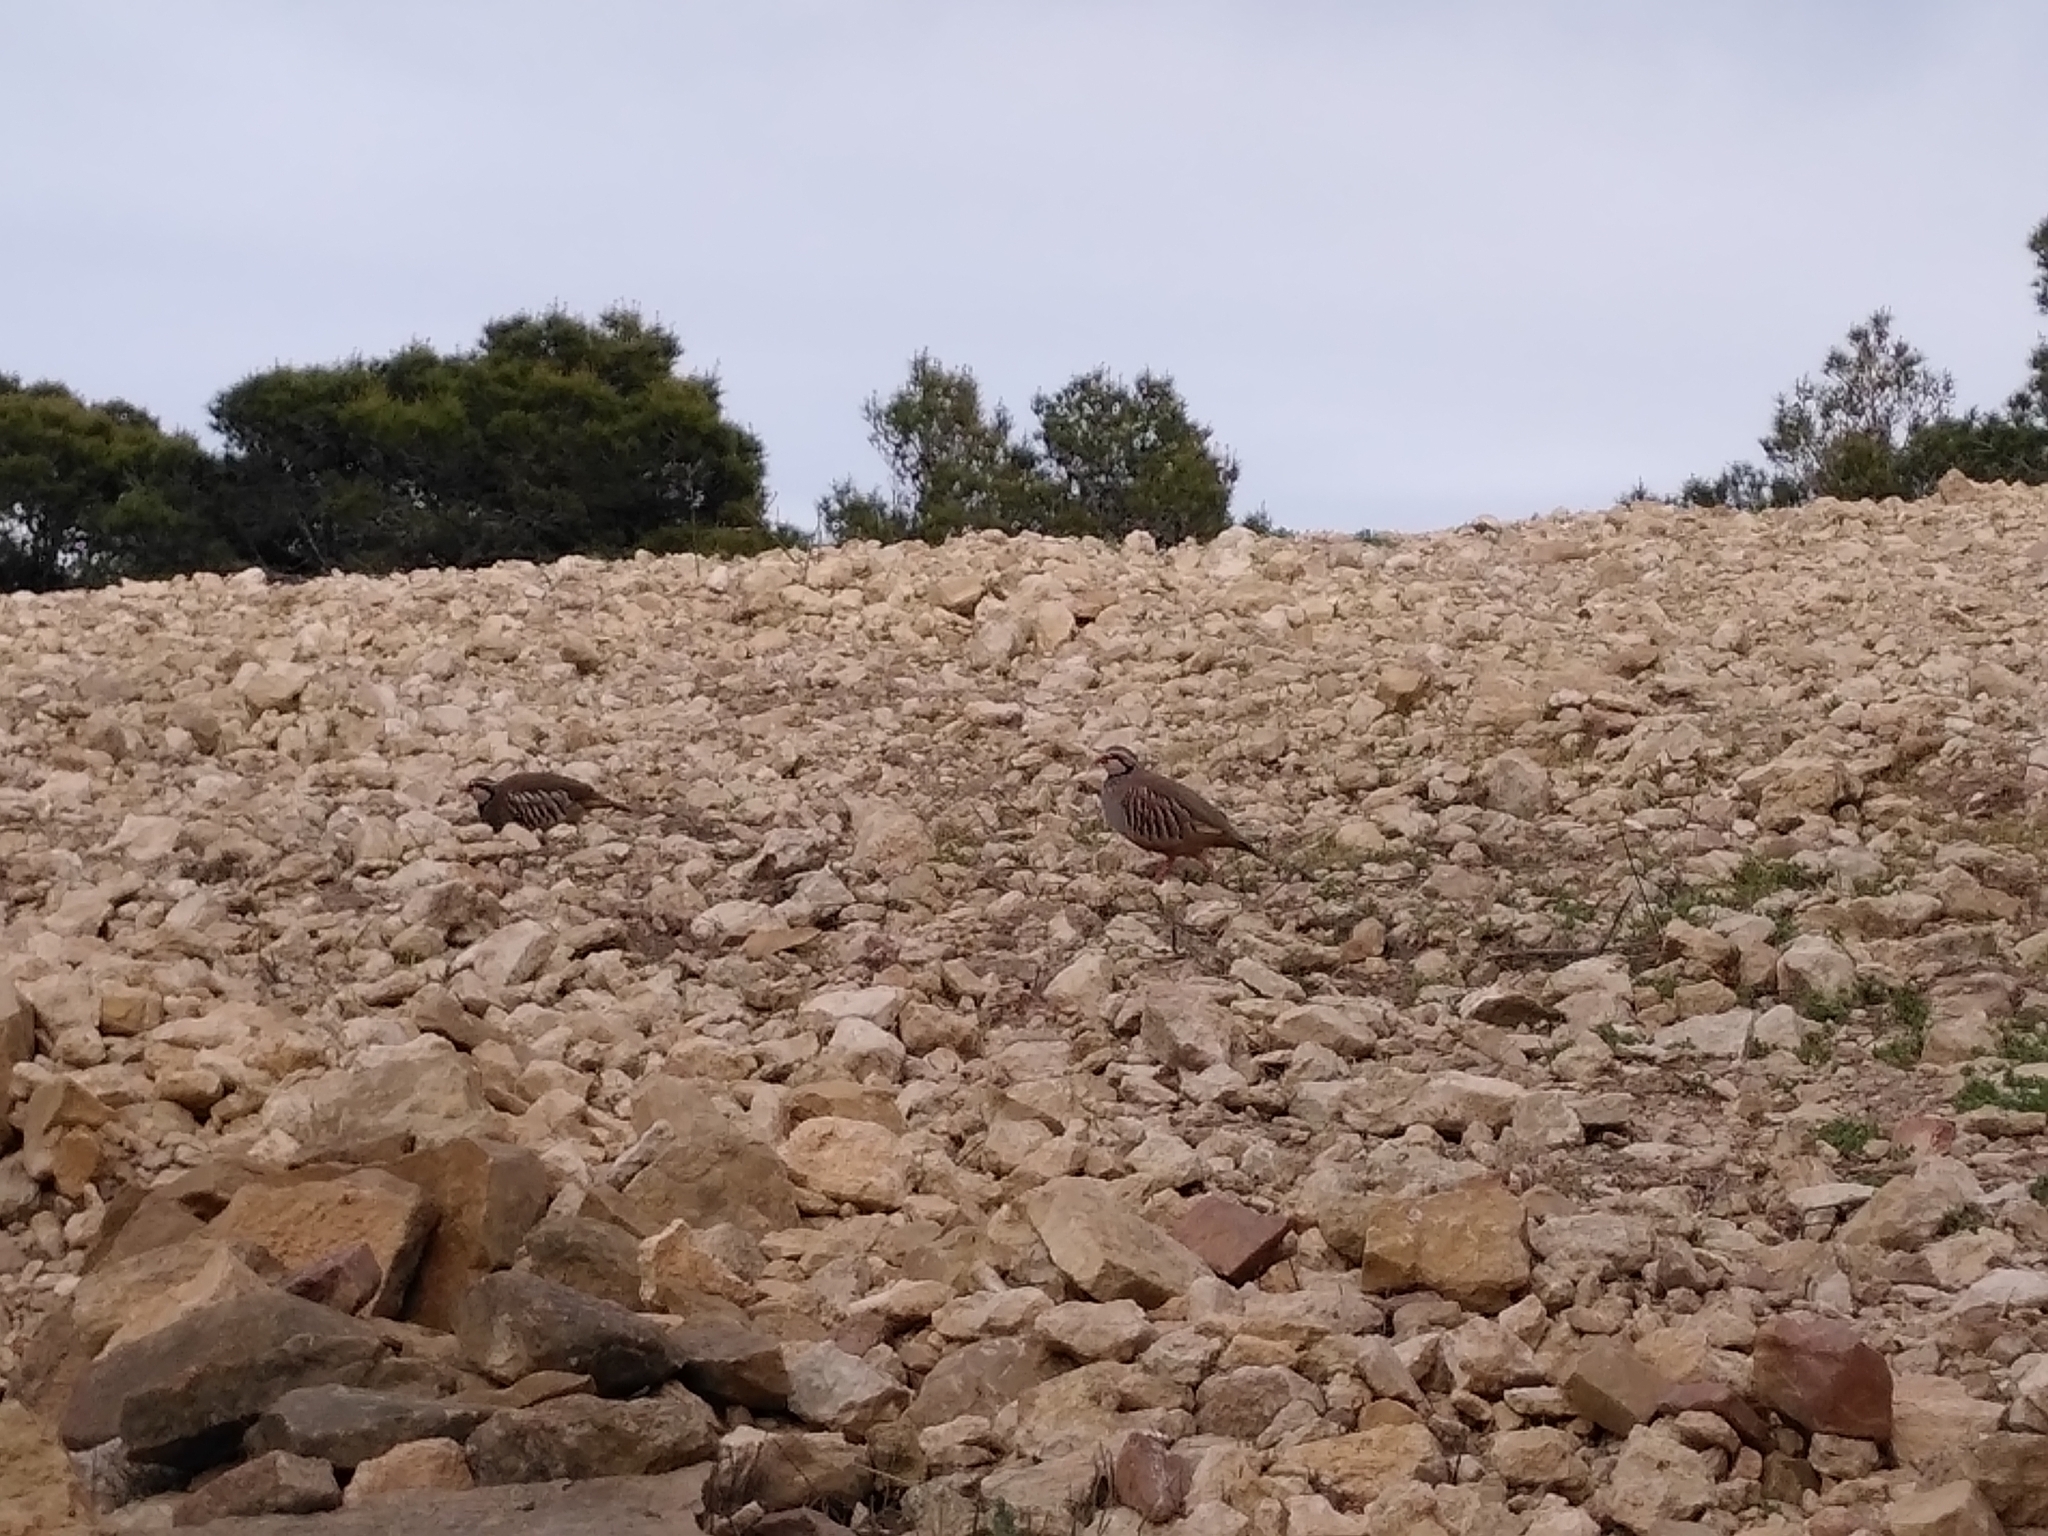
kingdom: Animalia
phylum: Chordata
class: Aves
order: Galliformes
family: Phasianidae
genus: Alectoris
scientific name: Alectoris rufa
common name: Red-legged partridge
